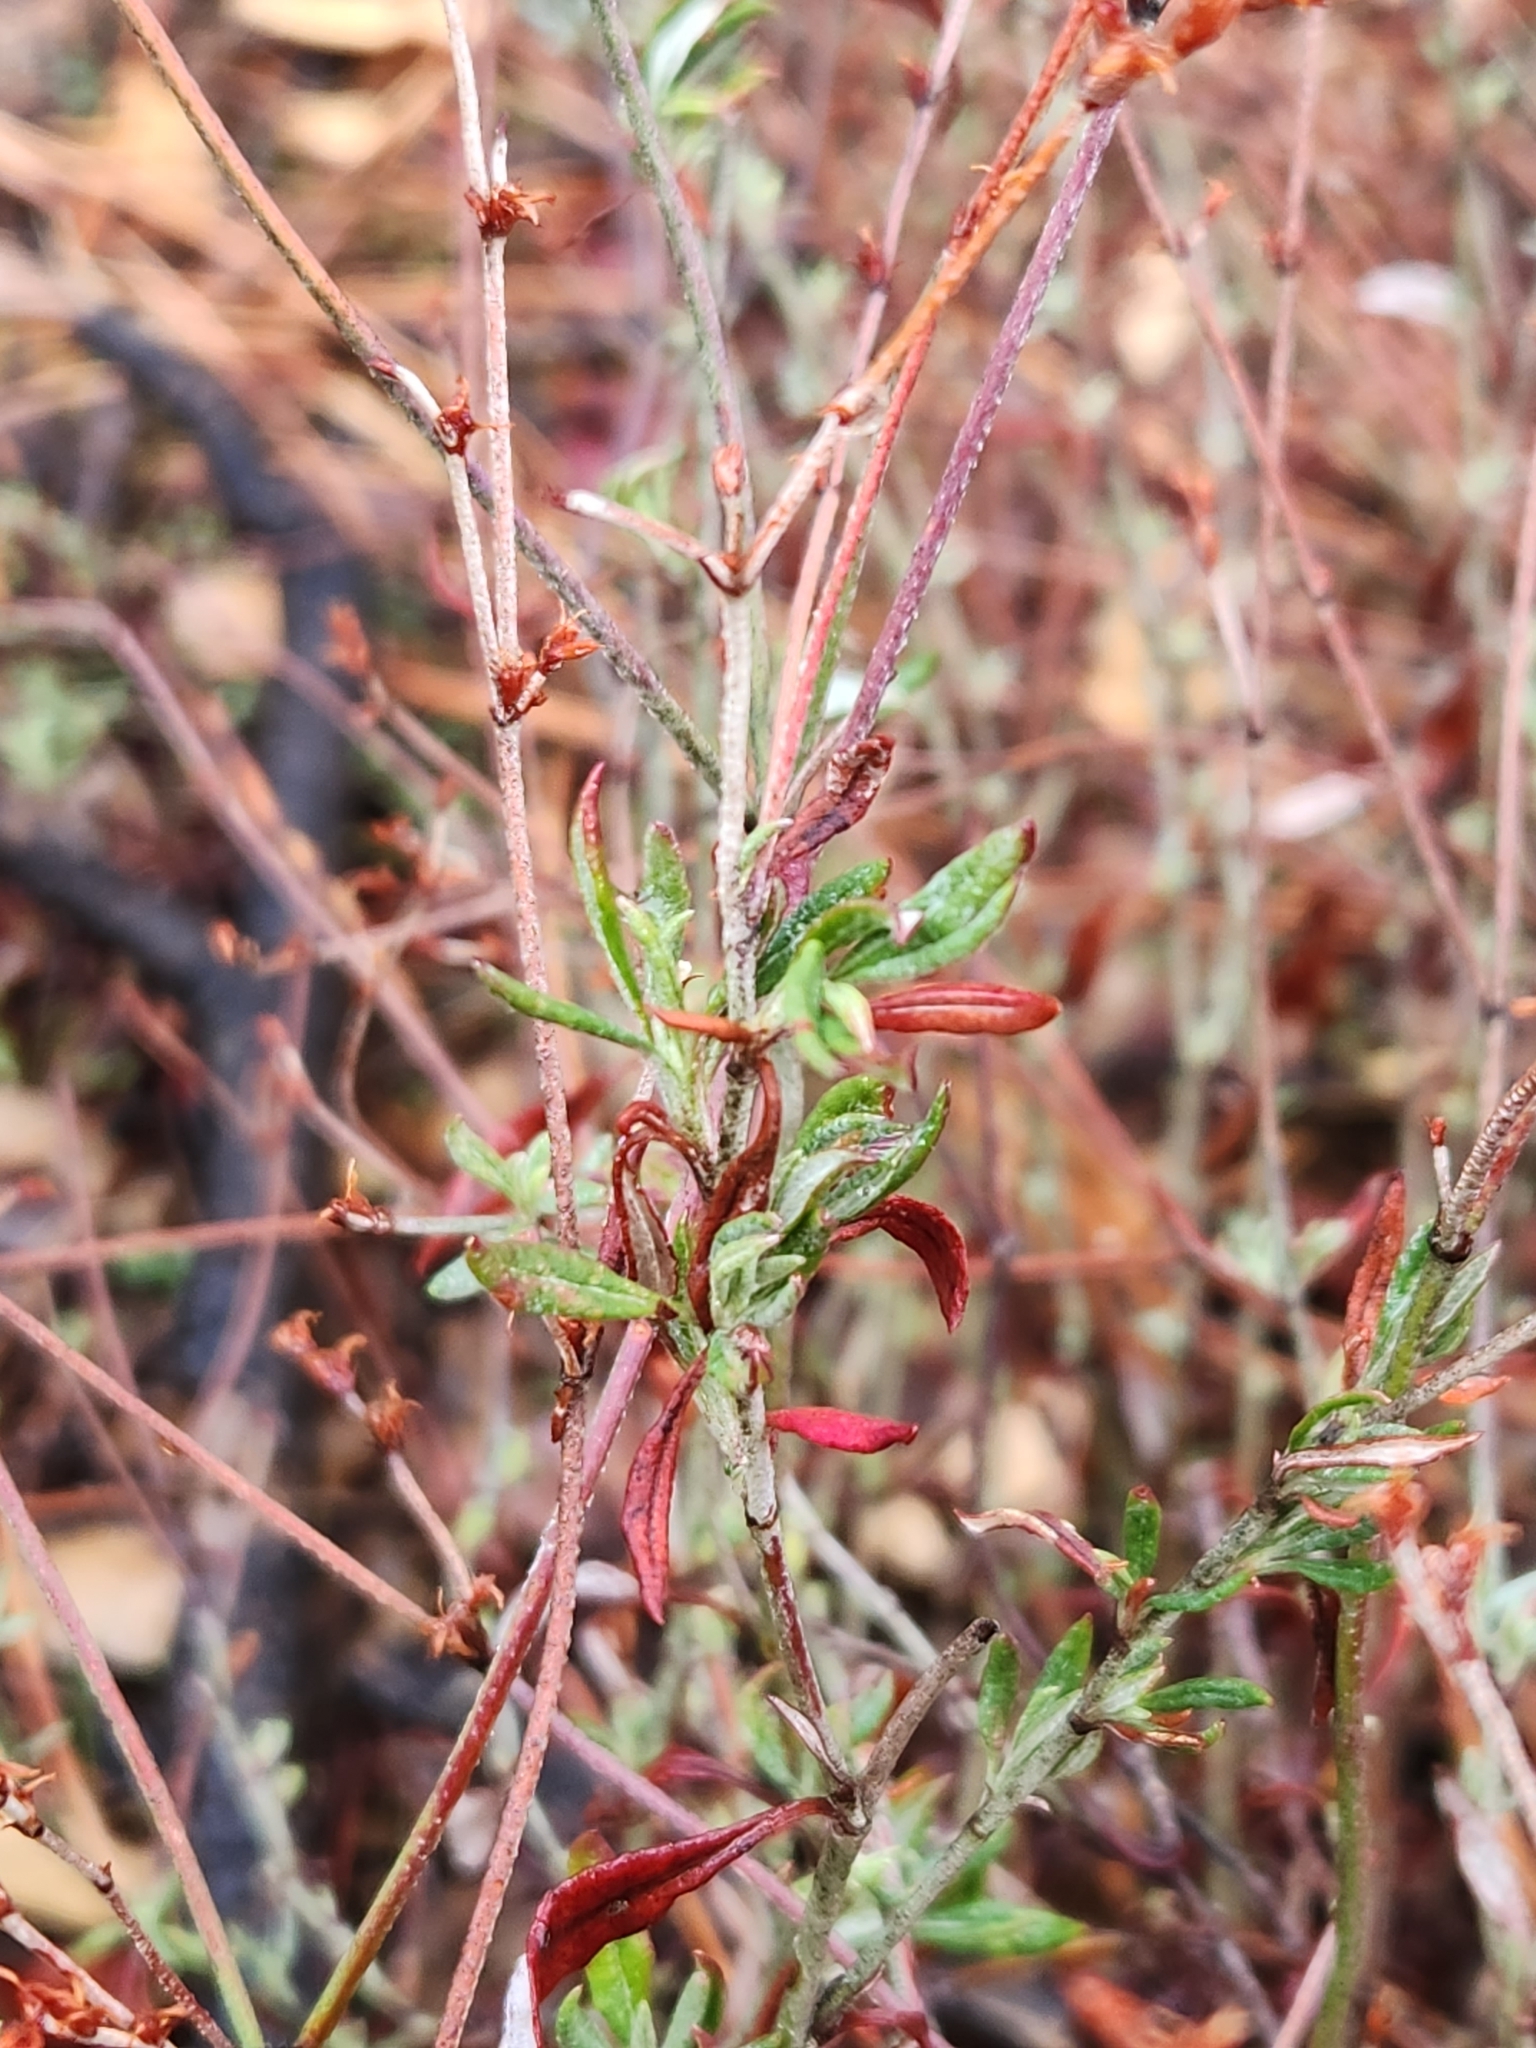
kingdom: Plantae
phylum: Tracheophyta
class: Magnoliopsida
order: Caryophyllales
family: Polygonaceae
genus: Eriogonum
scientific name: Eriogonum wrightii
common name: Bastard-sage
